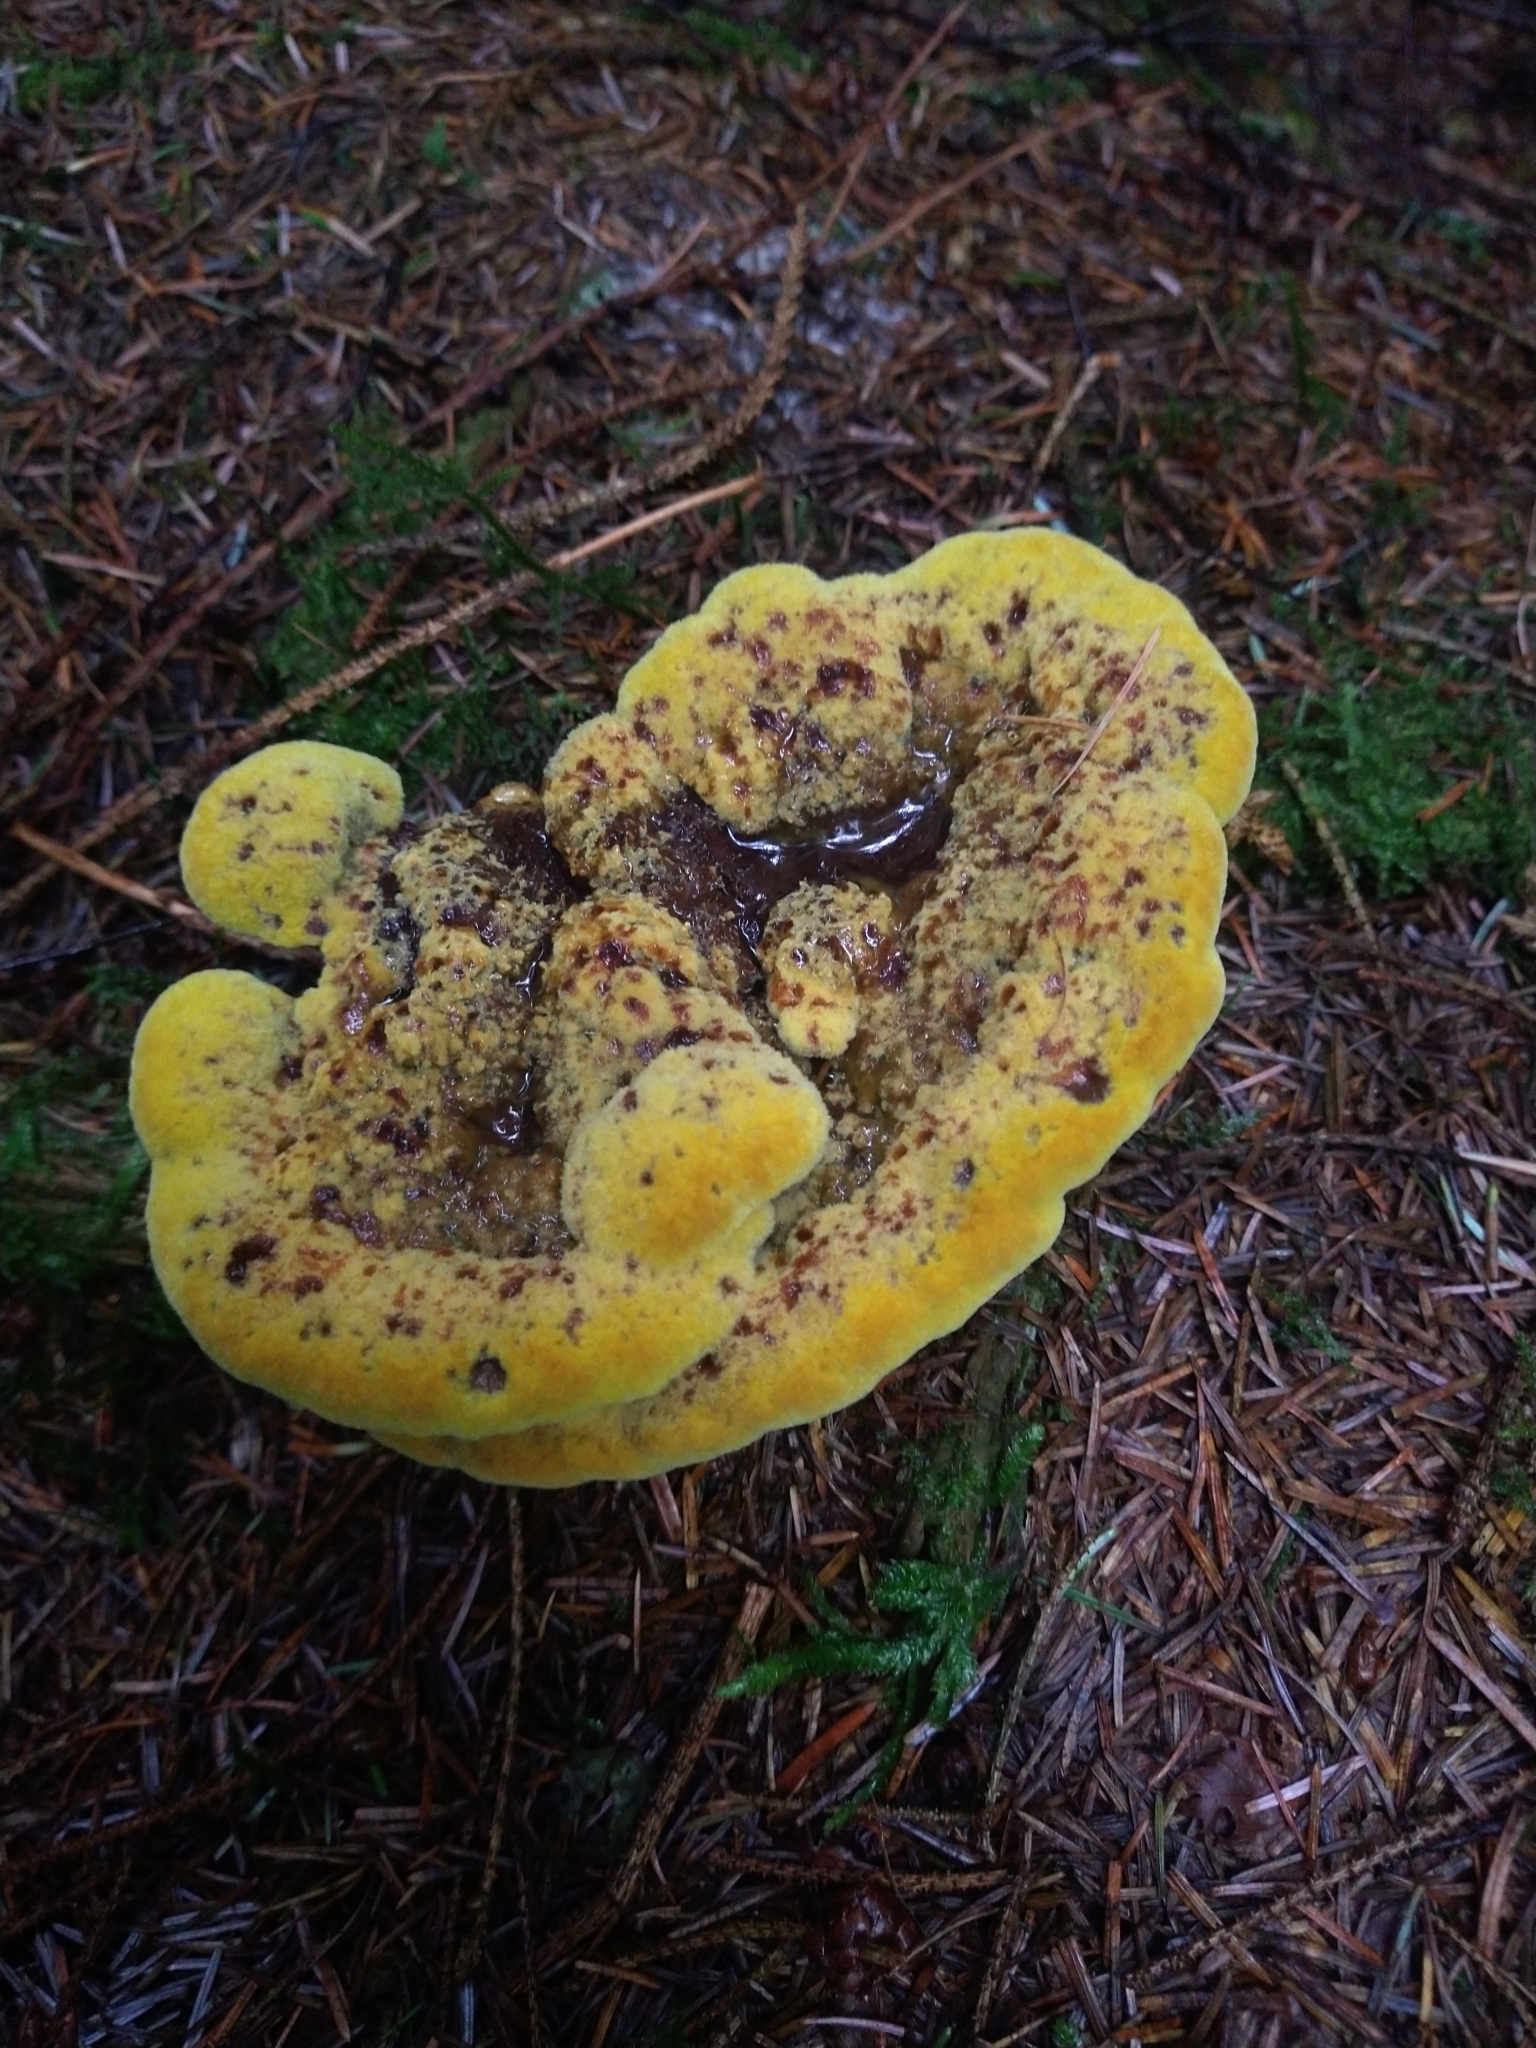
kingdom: Fungi
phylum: Basidiomycota
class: Agaricomycetes
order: Polyporales
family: Laetiporaceae
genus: Phaeolus
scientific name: Phaeolus schweinitzii
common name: Dyer's mazegill
